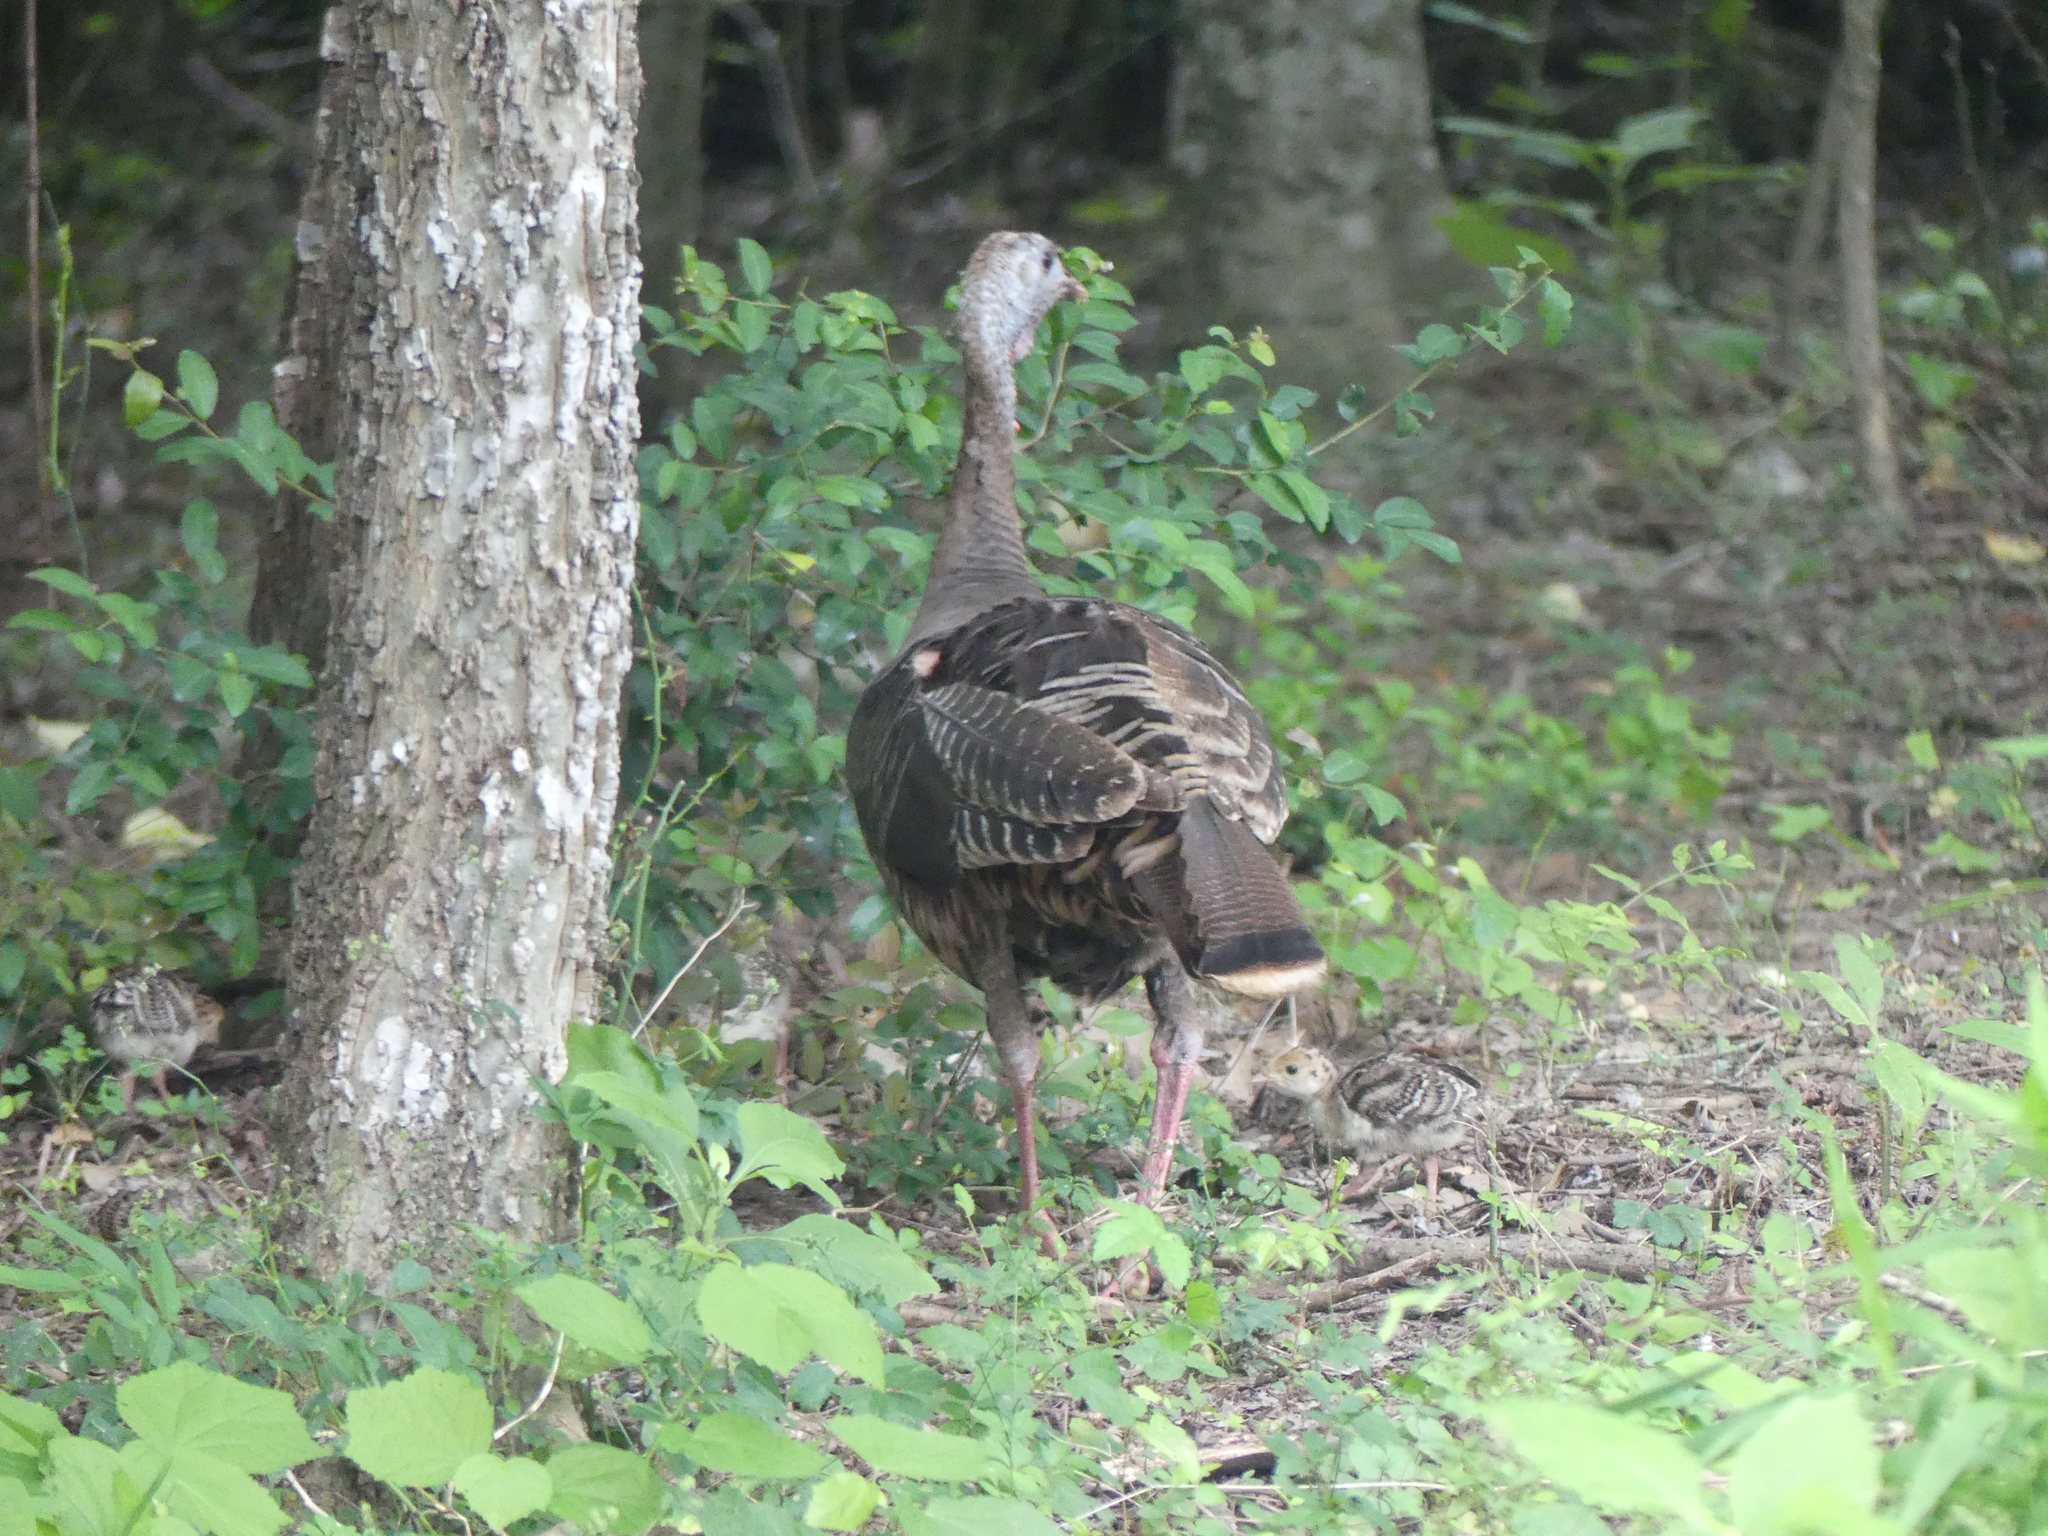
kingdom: Animalia
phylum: Chordata
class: Aves
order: Galliformes
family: Phasianidae
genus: Meleagris
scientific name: Meleagris gallopavo
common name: Wild turkey
